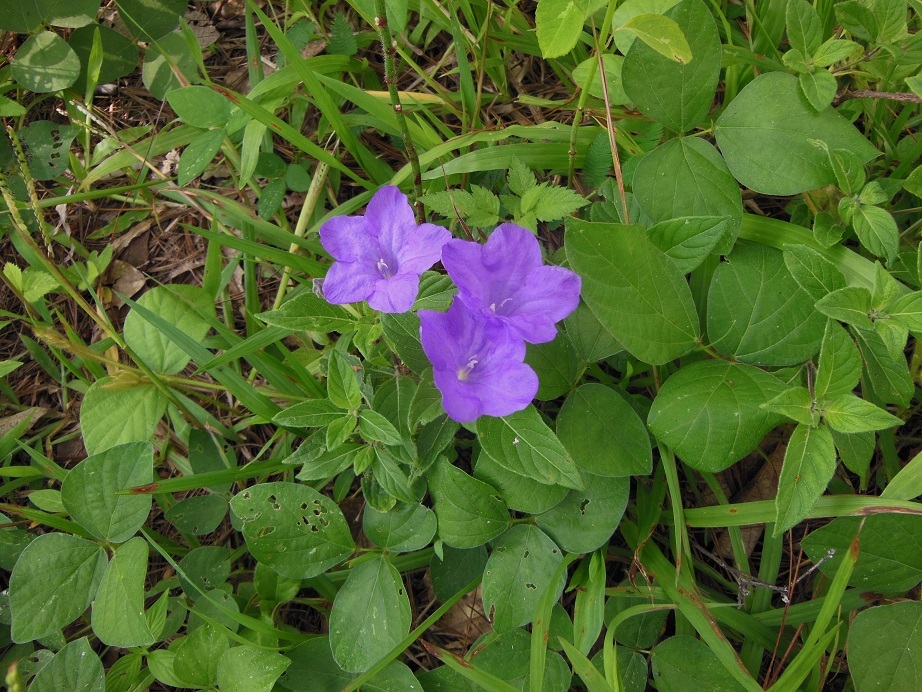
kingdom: Plantae
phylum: Tracheophyta
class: Magnoliopsida
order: Lamiales
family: Acanthaceae
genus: Ruellia
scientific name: Ruellia hookeriana
